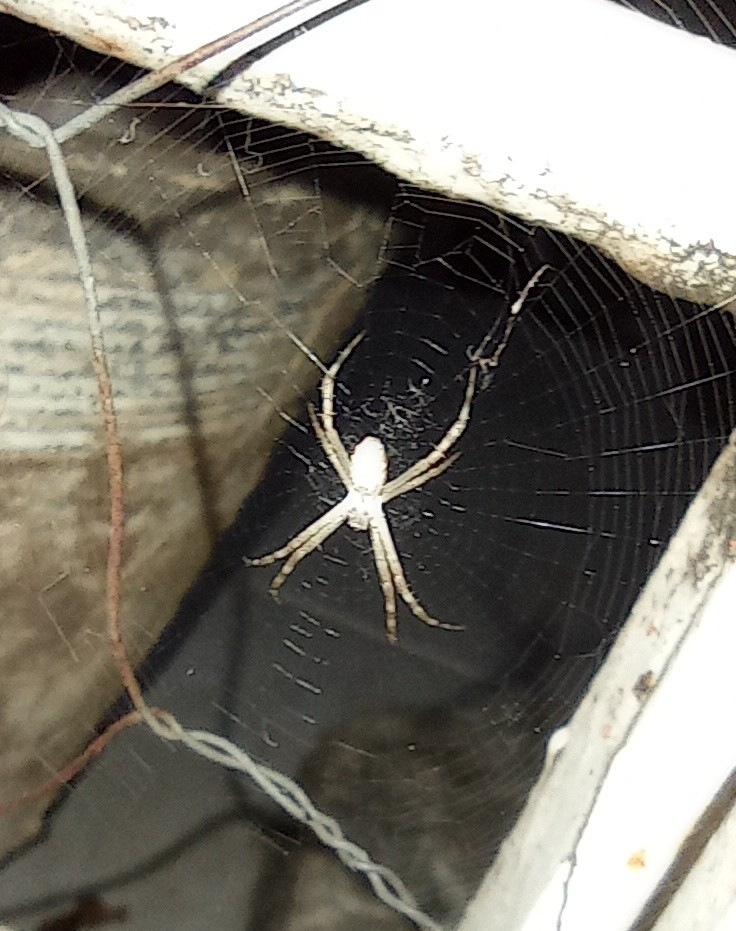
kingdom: Animalia
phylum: Arthropoda
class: Arachnida
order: Araneae
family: Araneidae
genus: Argiope
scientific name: Argiope argentata
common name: Orb weavers
